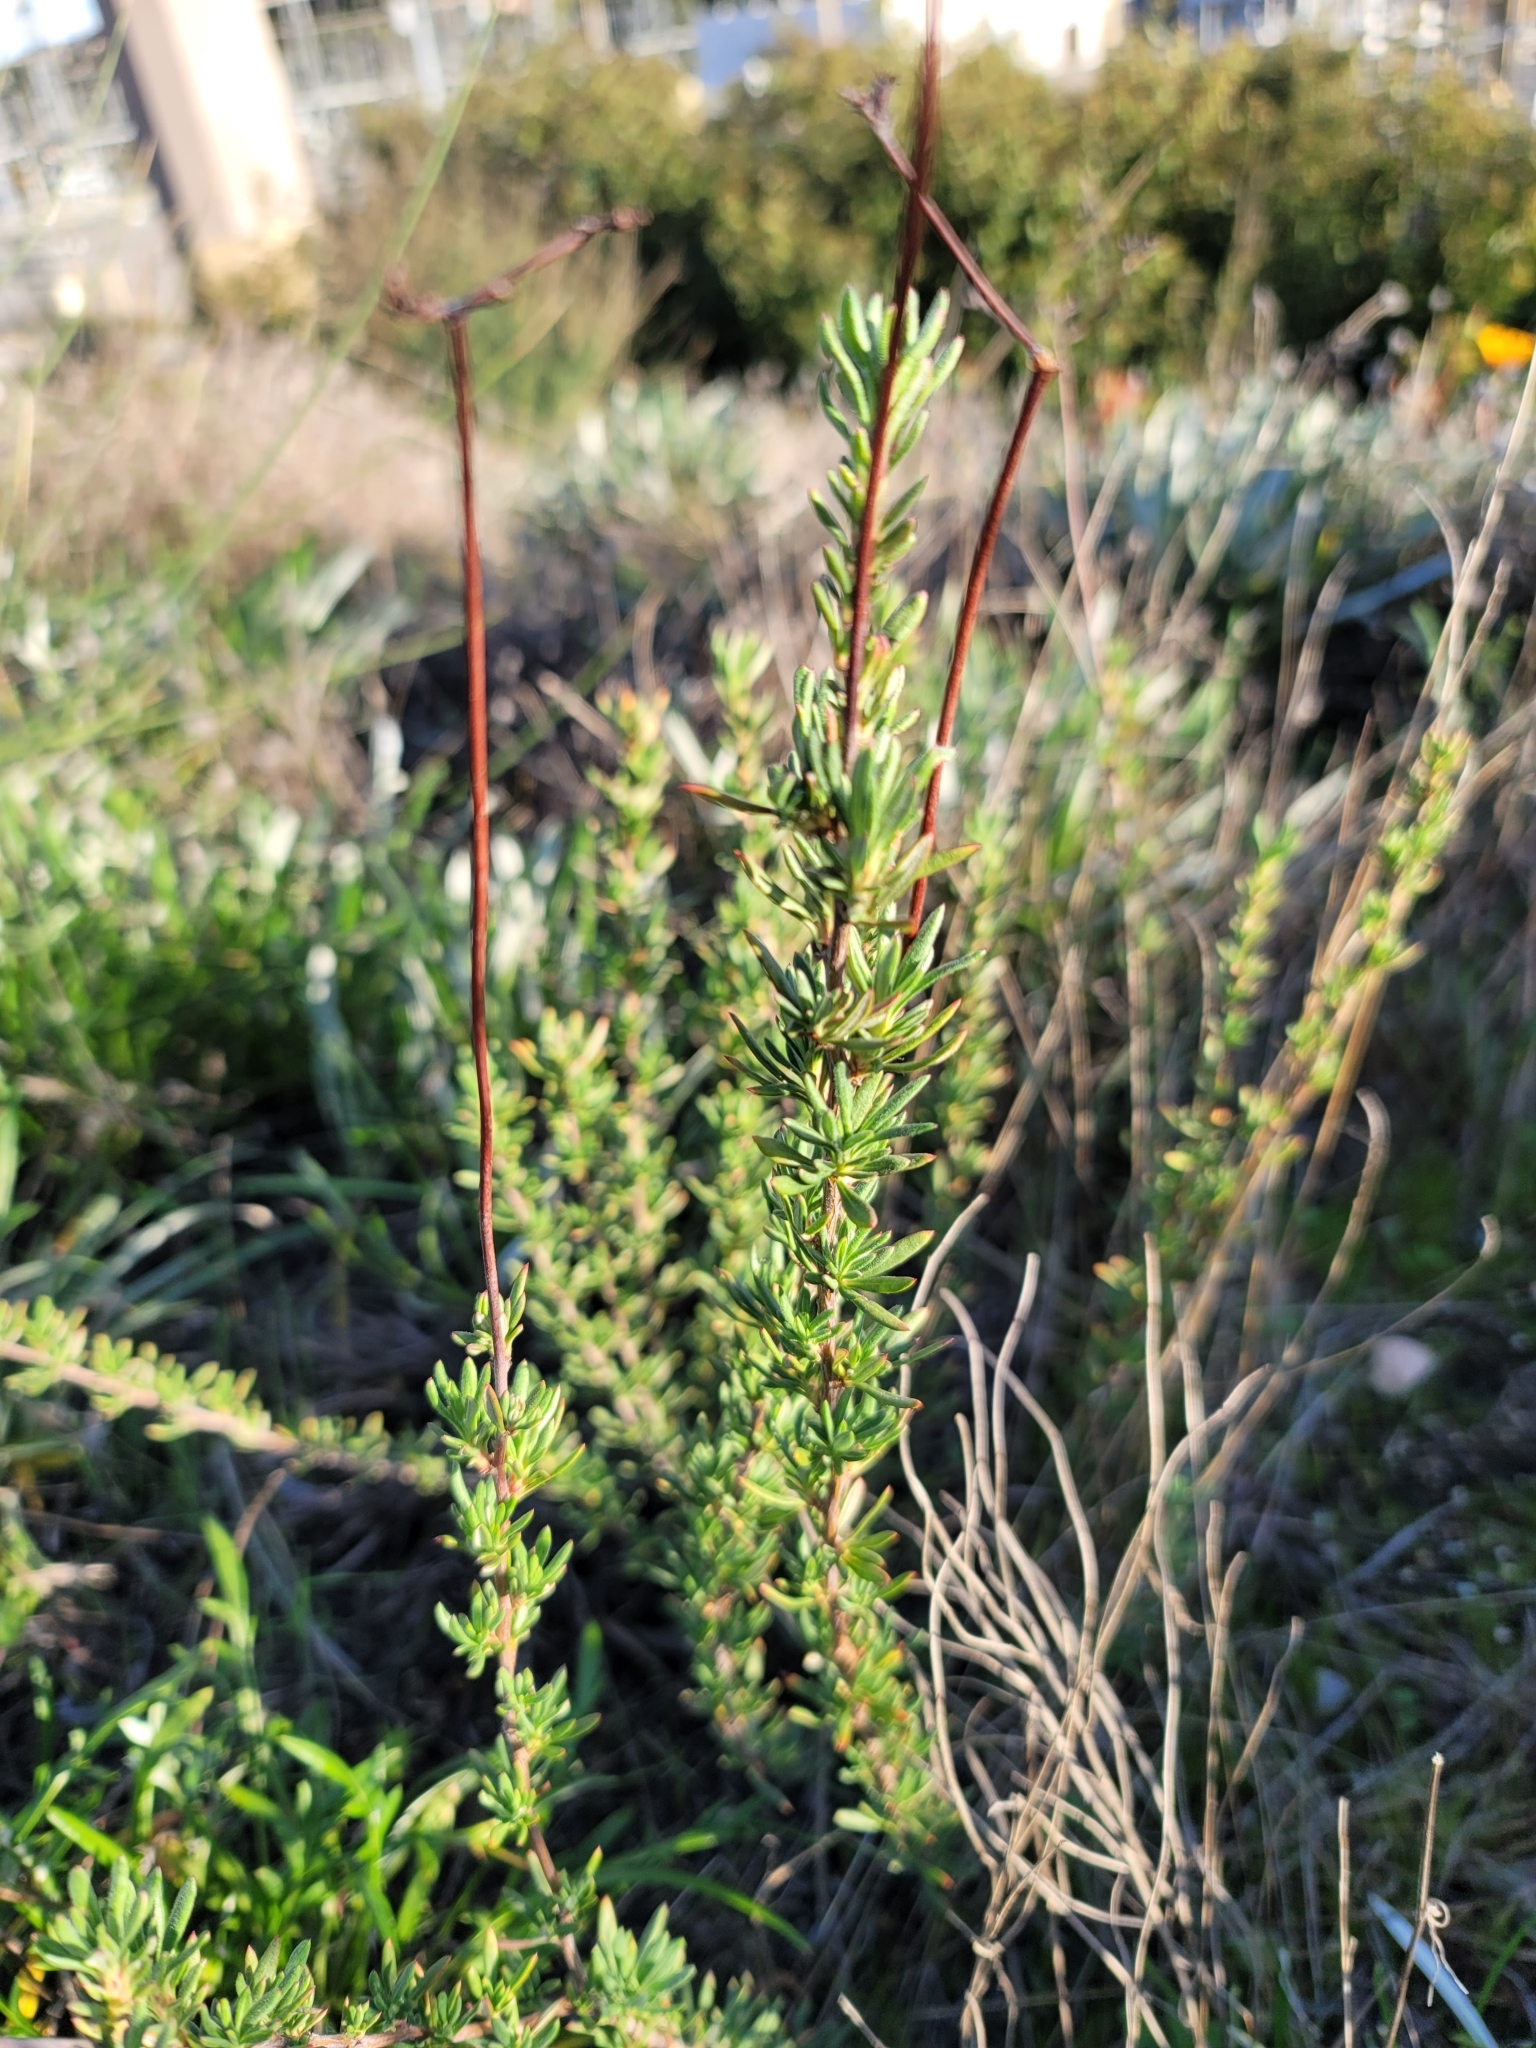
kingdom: Plantae
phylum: Tracheophyta
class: Magnoliopsida
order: Caryophyllales
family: Polygonaceae
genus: Eriogonum
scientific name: Eriogonum fasciculatum
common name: California wild buckwheat
